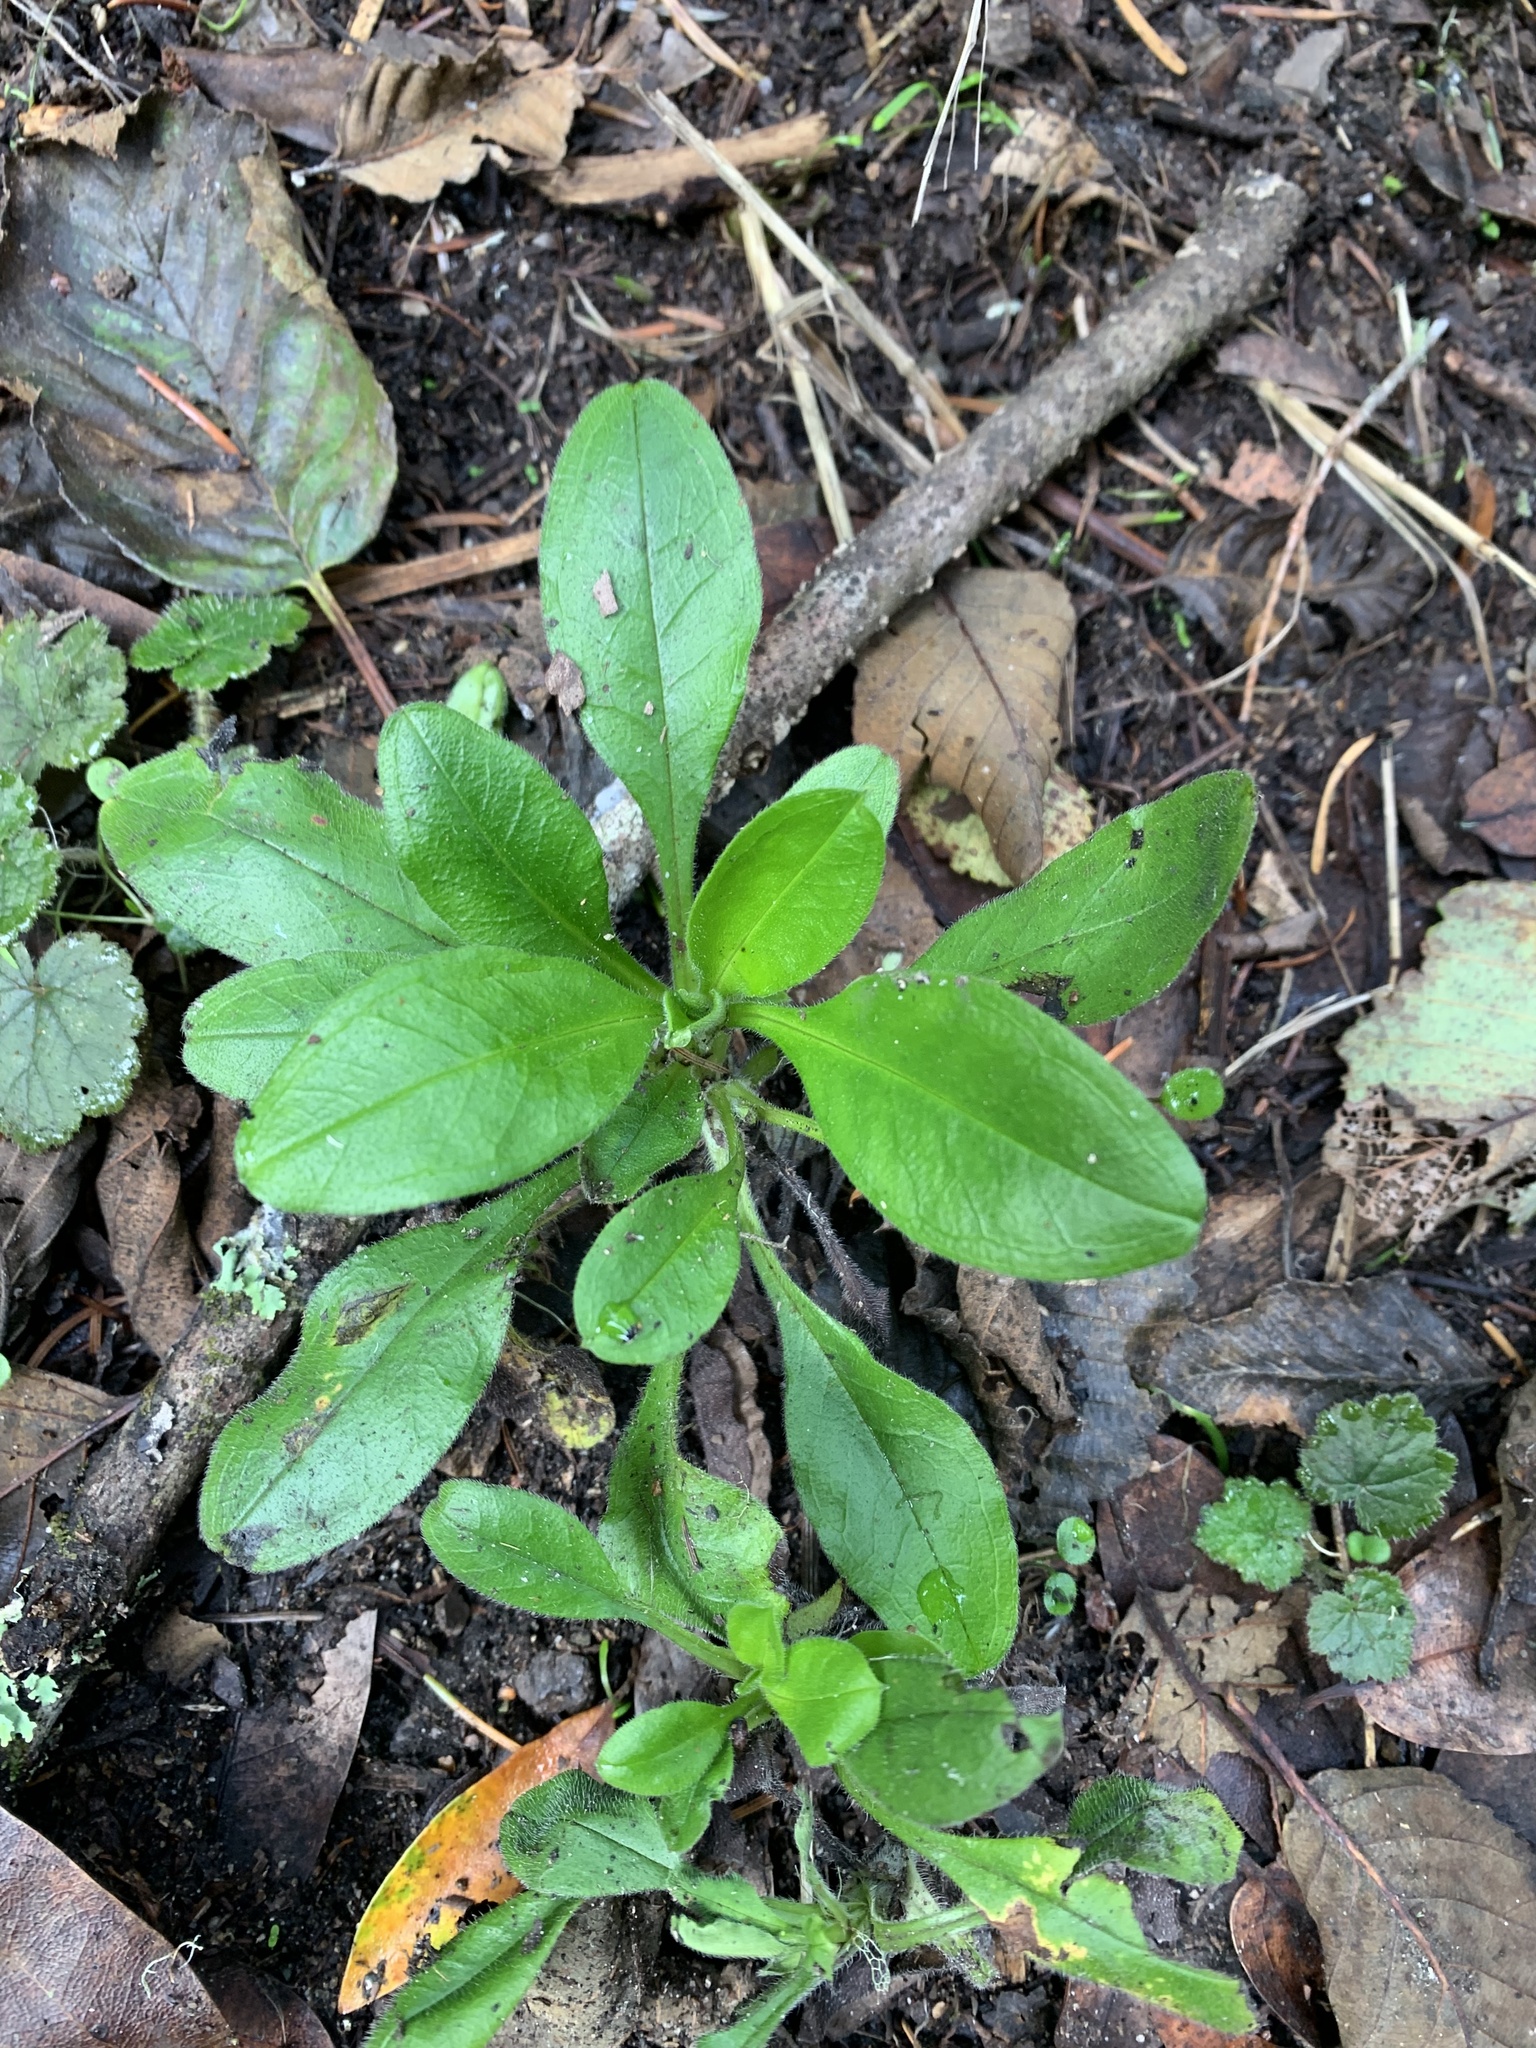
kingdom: Plantae
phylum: Tracheophyta
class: Magnoliopsida
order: Boraginales
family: Boraginaceae
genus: Myosotis
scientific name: Myosotis latifolia
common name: Broadleaf forget-me-not
